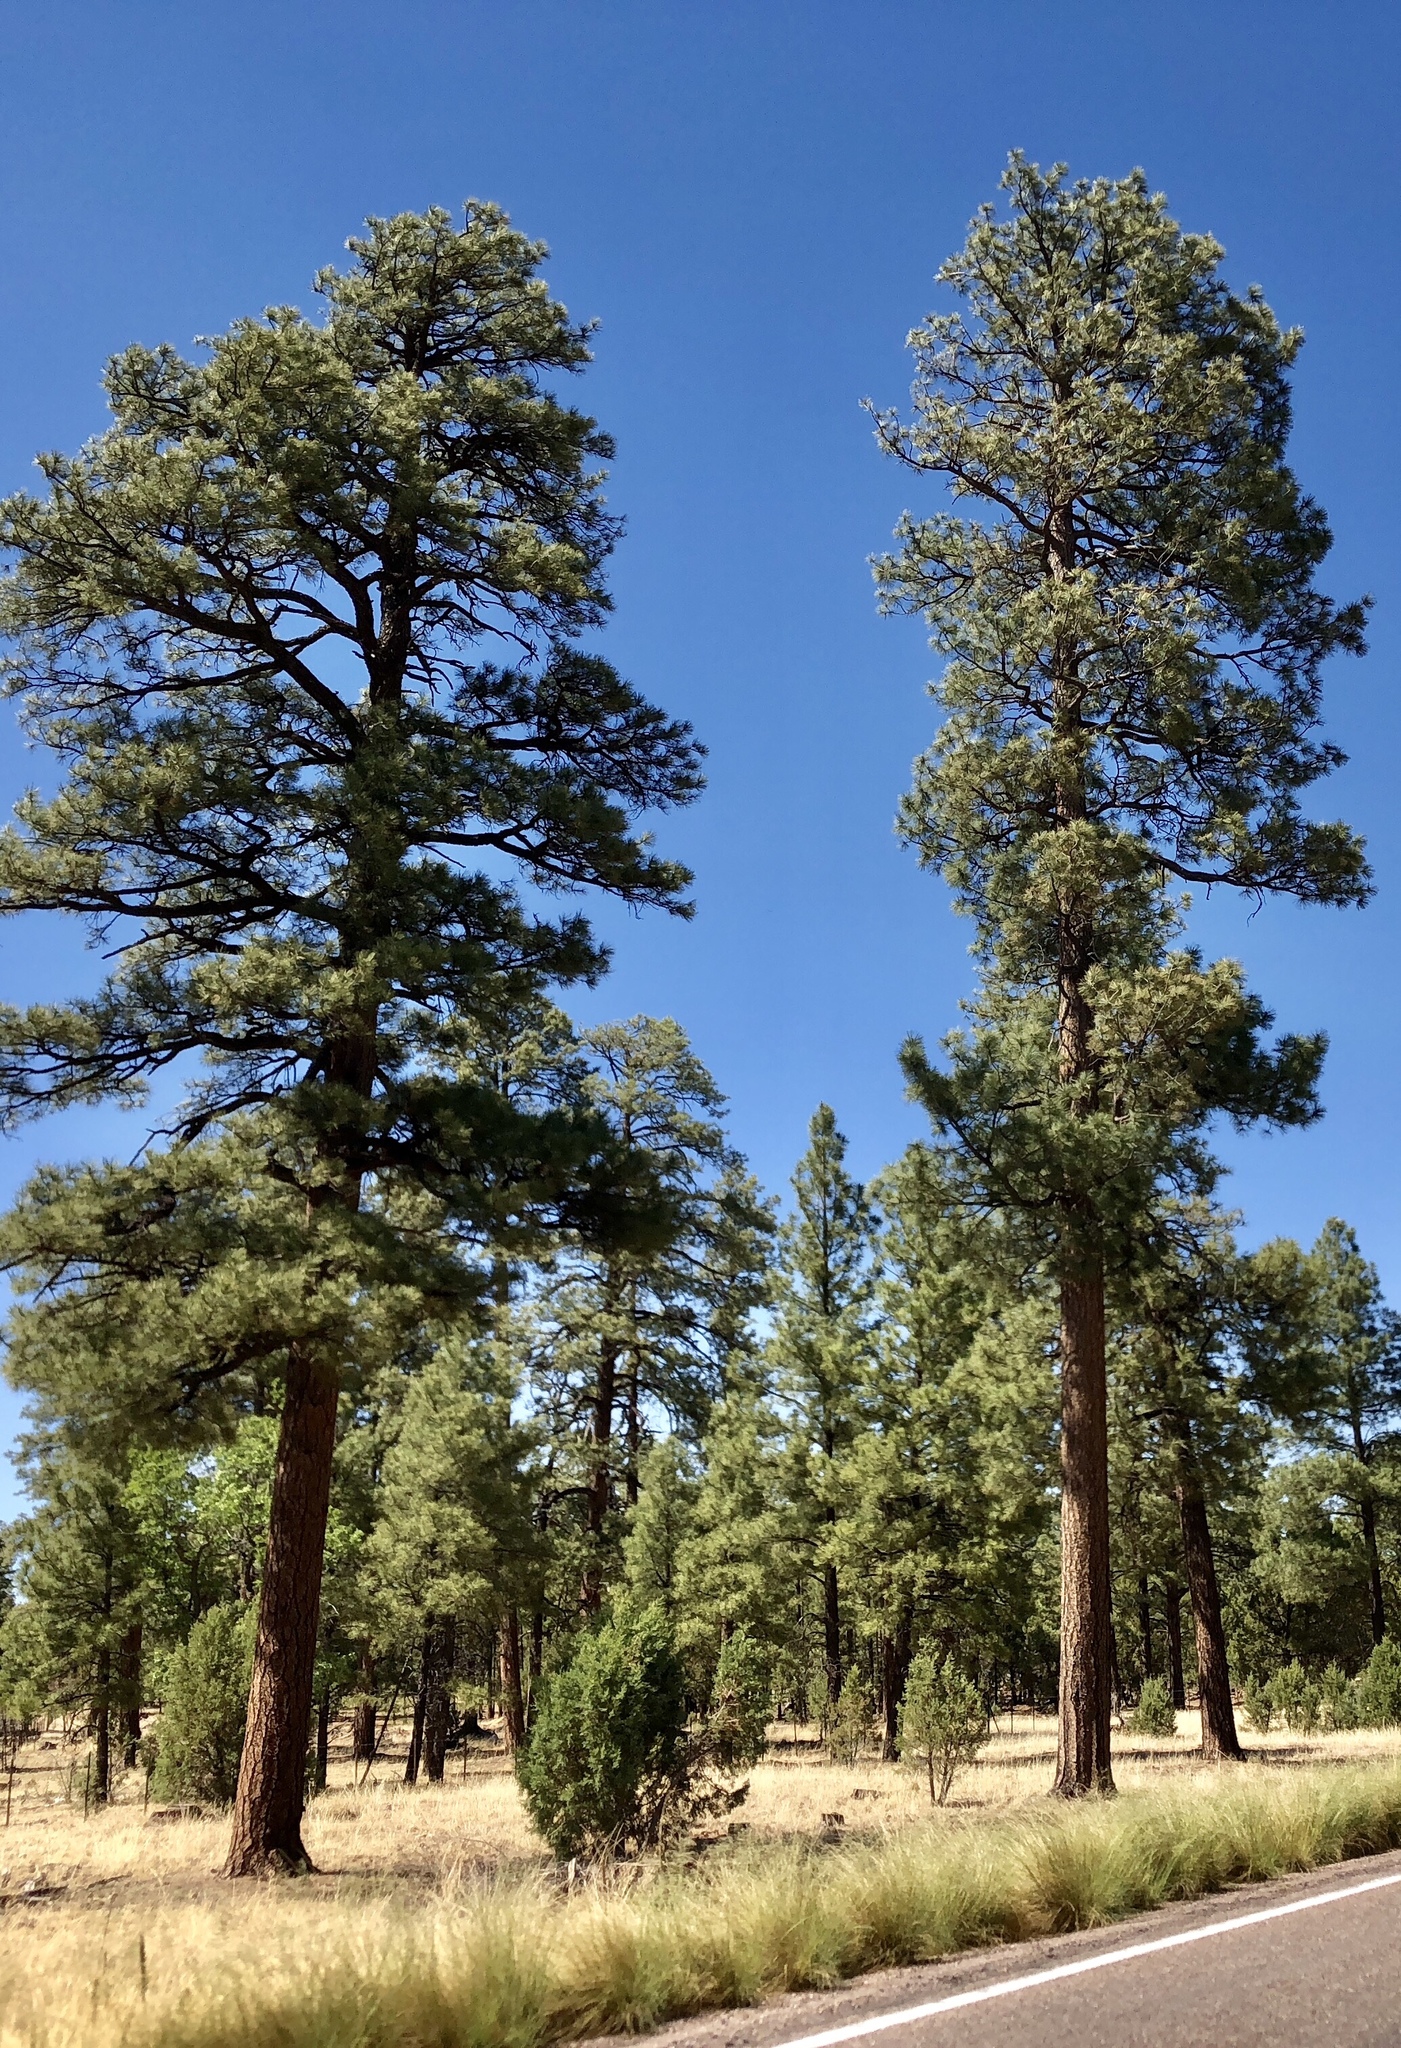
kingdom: Plantae
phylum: Tracheophyta
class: Pinopsida
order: Pinales
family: Pinaceae
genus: Pinus
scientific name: Pinus ponderosa
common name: Western yellow-pine
